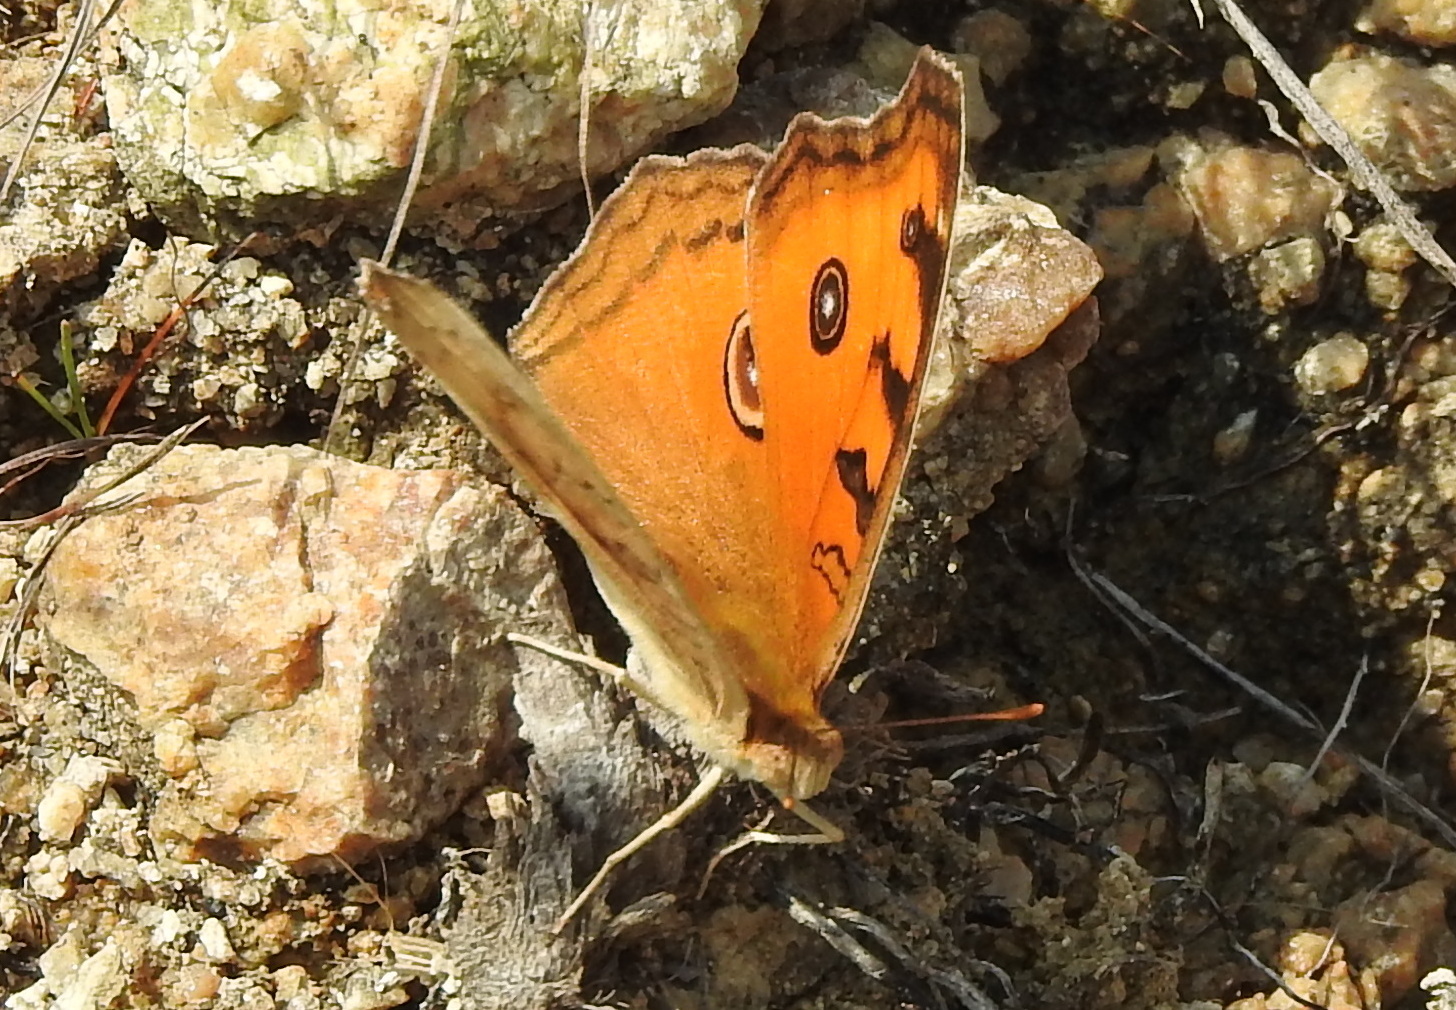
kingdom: Animalia
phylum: Arthropoda
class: Insecta
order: Lepidoptera
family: Nymphalidae
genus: Junonia
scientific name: Junonia almana
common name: Peacock pansy
